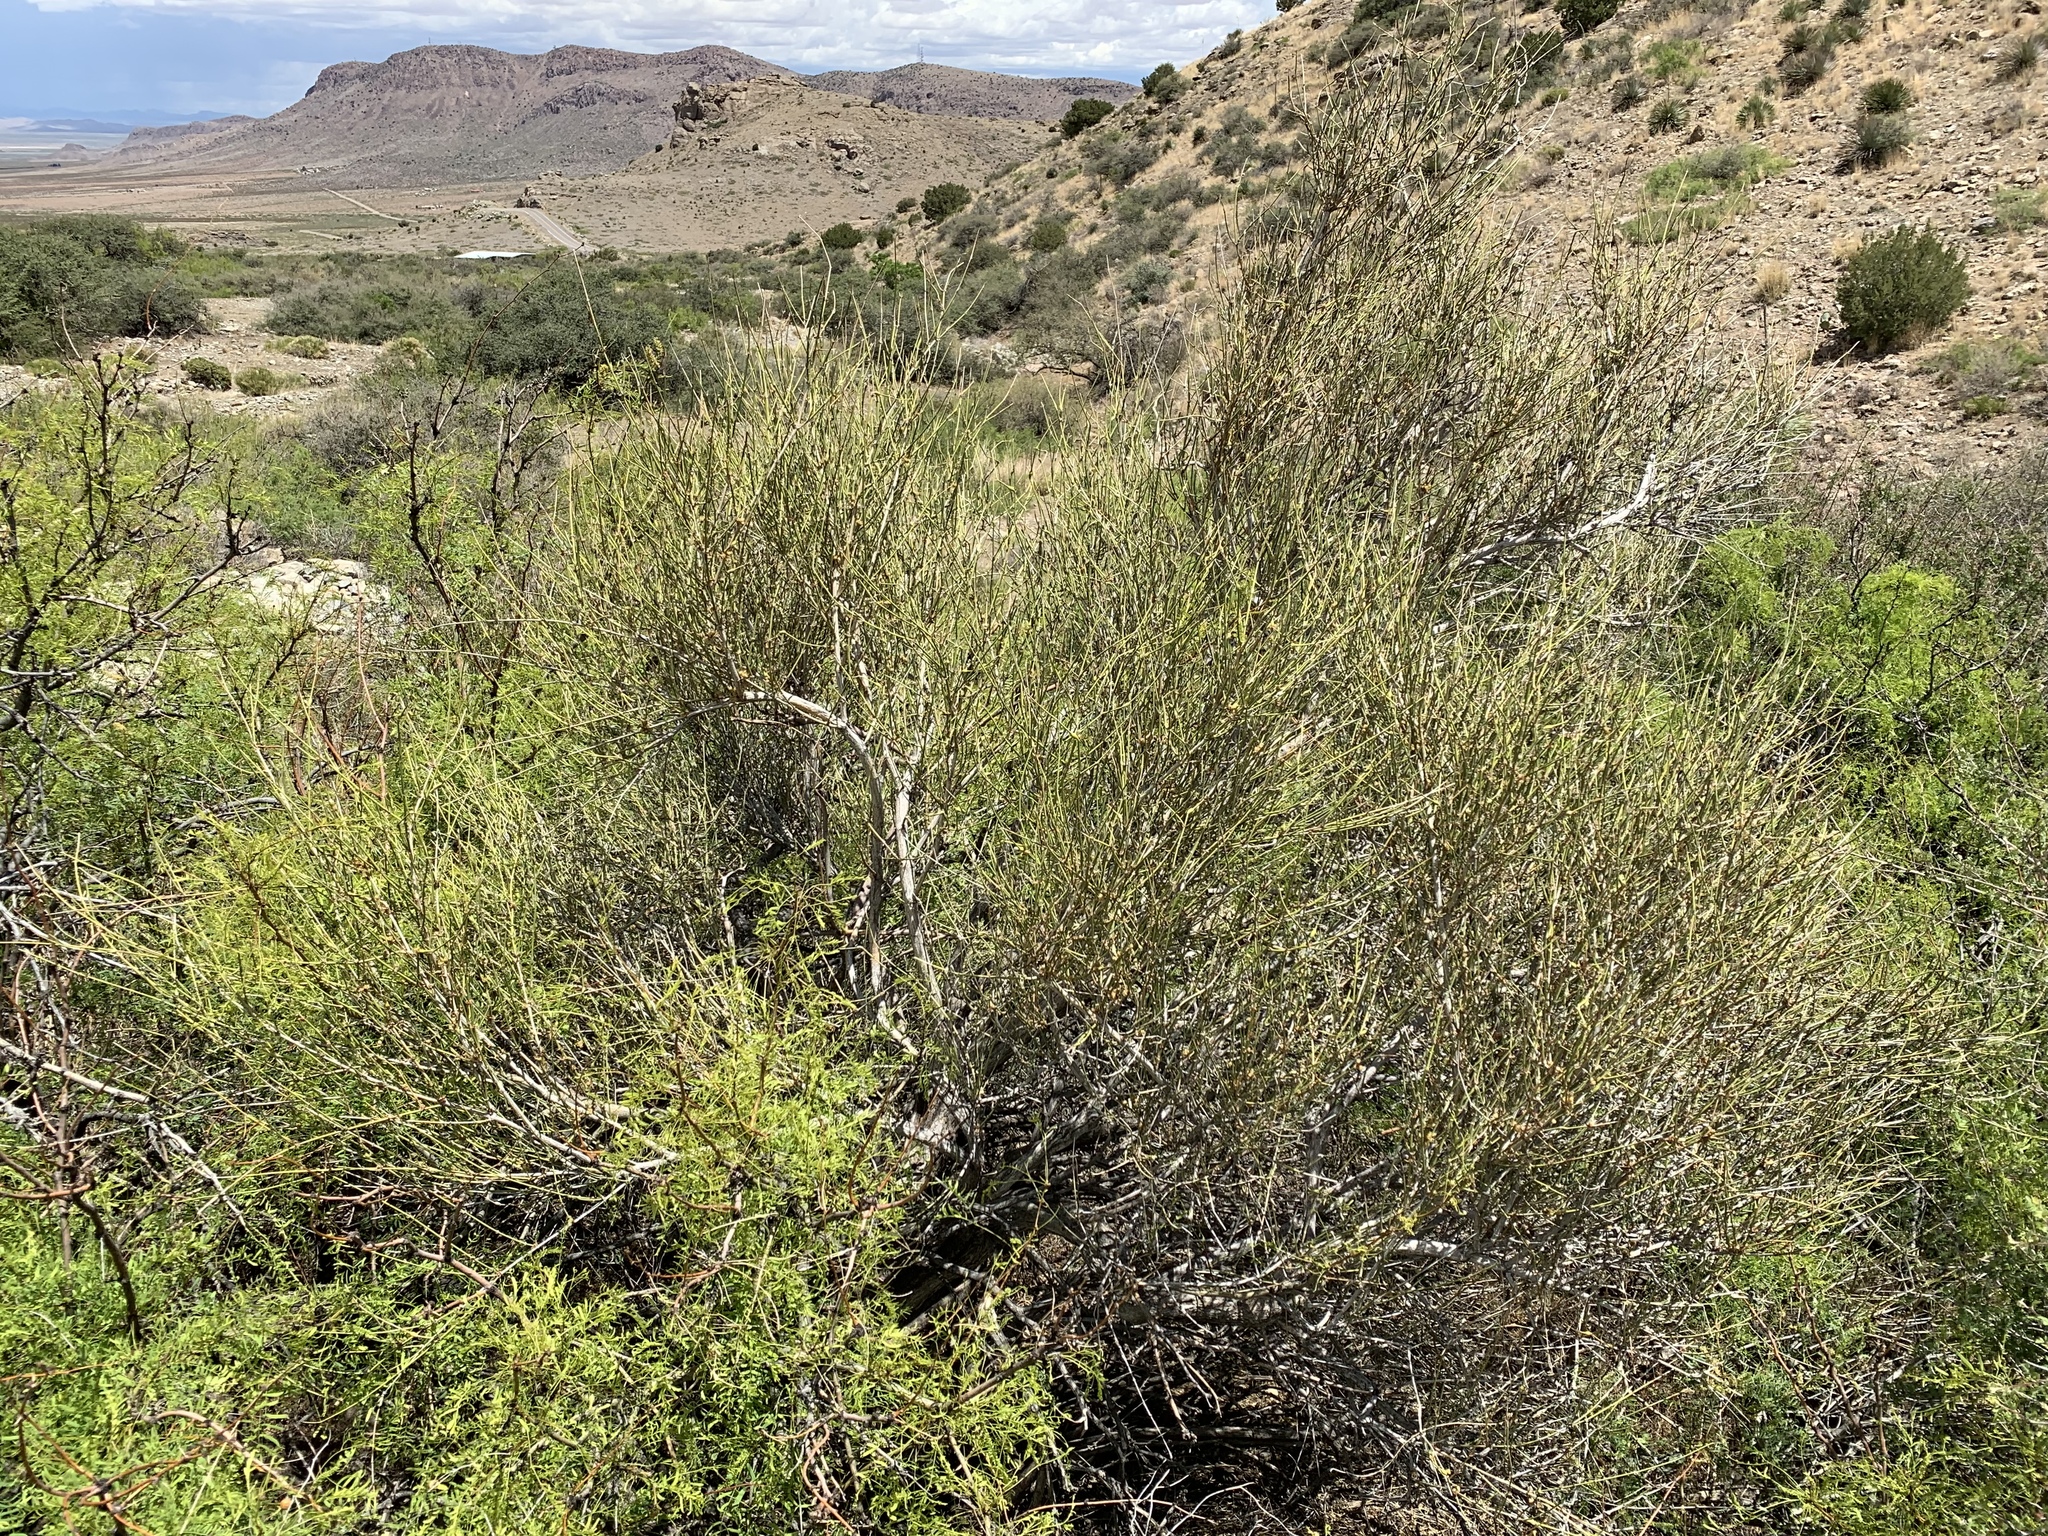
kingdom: Plantae
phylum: Tracheophyta
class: Gnetopsida
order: Ephedrales
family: Ephedraceae
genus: Ephedra
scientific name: Ephedra trifurca
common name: Mexican-tea
